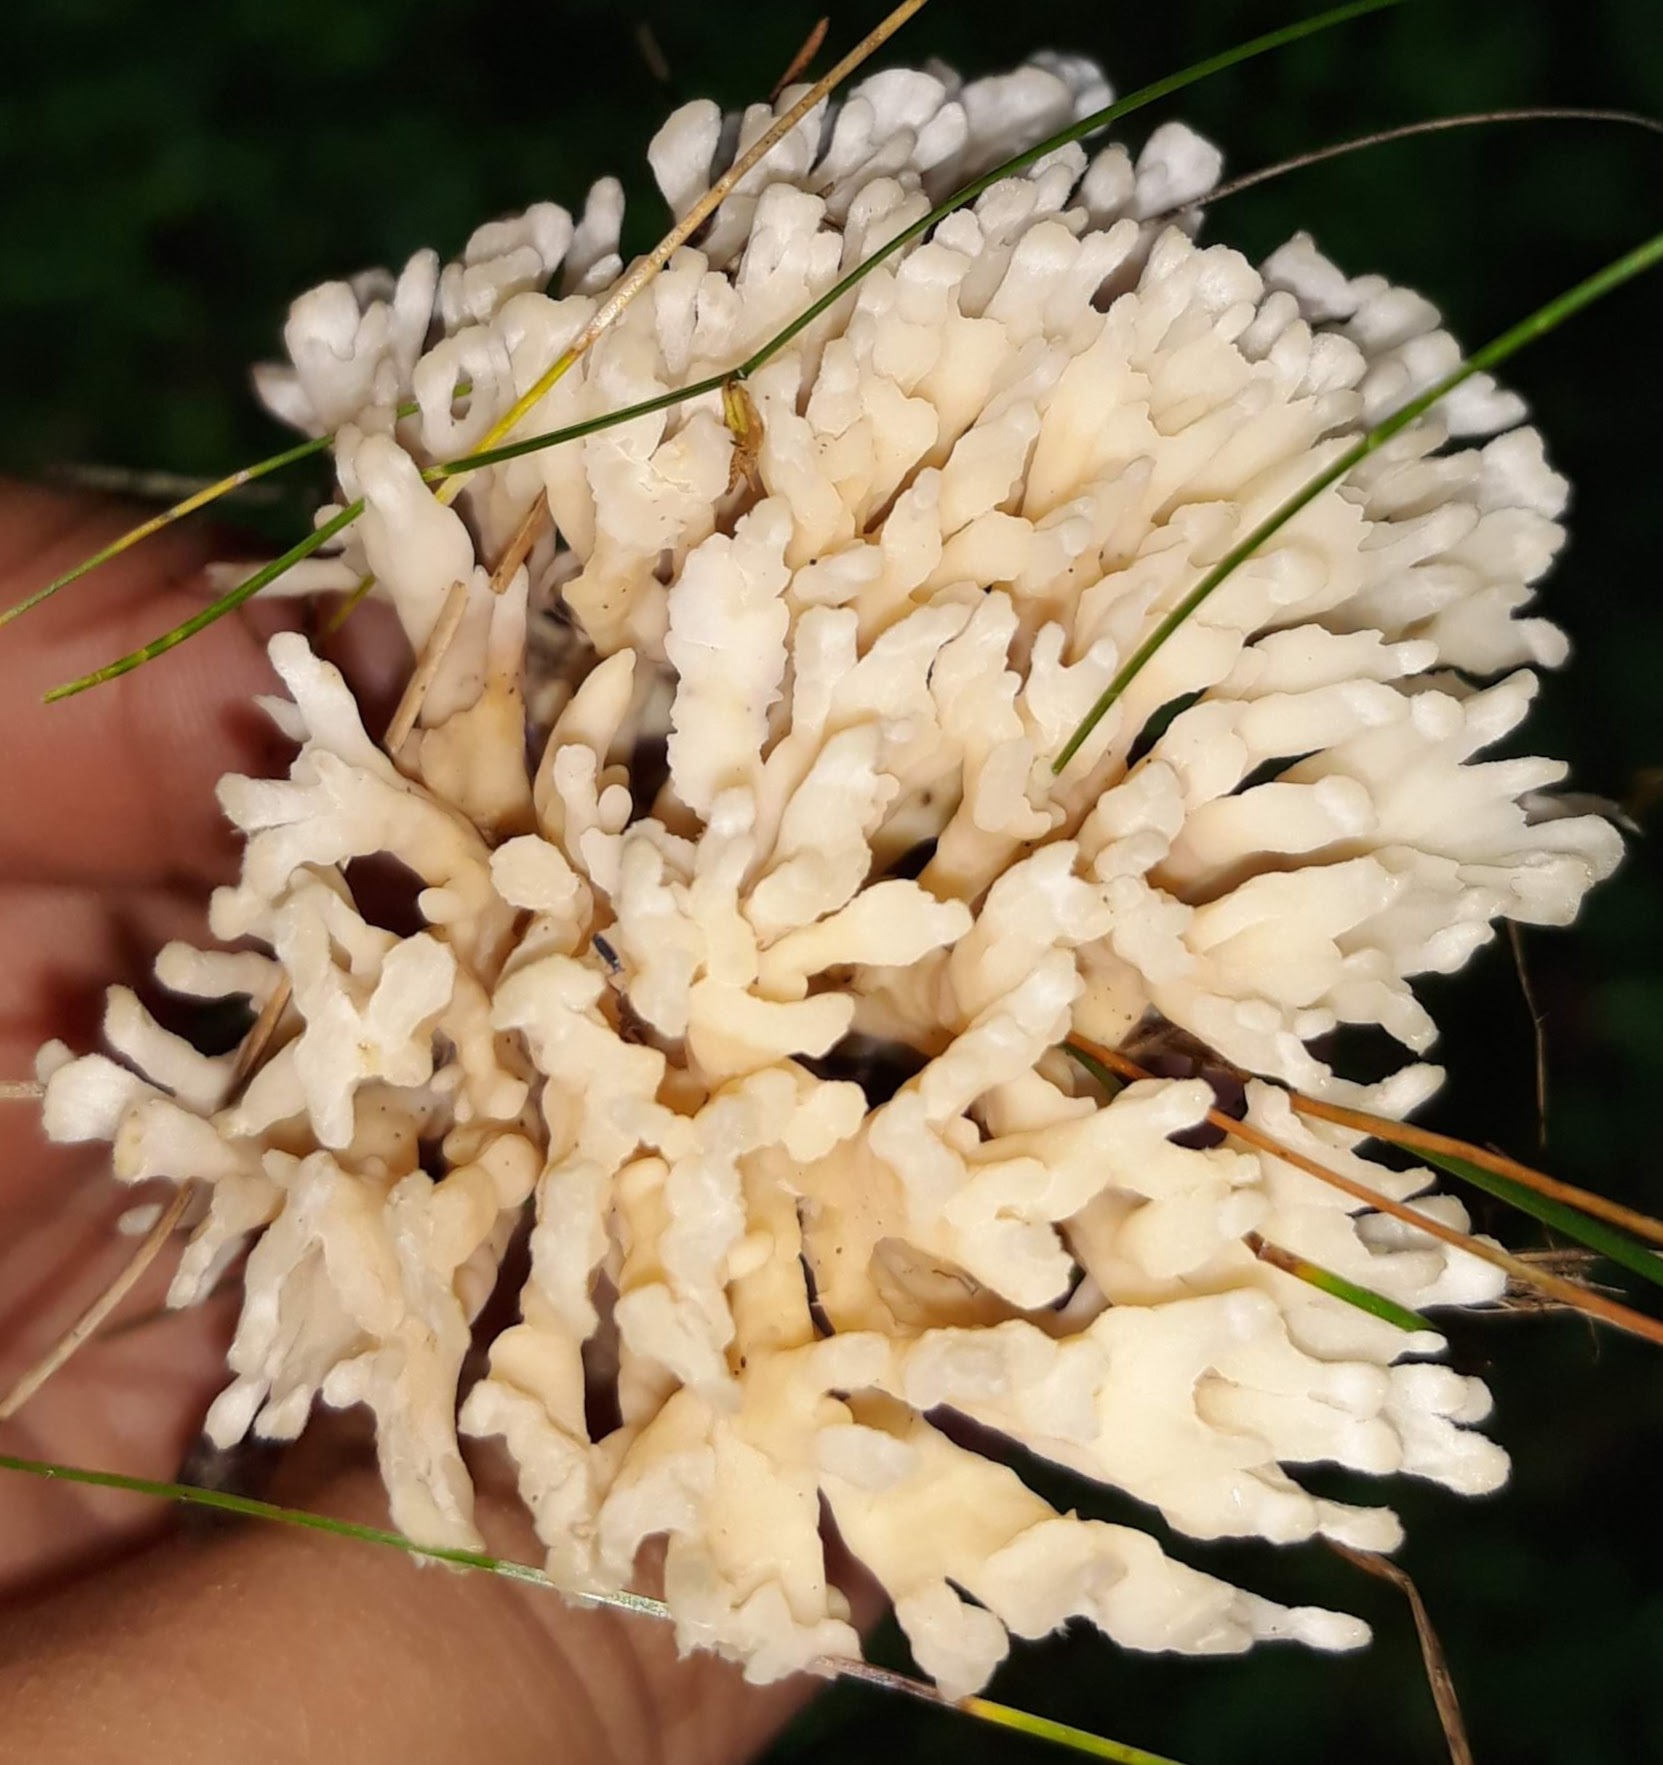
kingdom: Fungi
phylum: Basidiomycota
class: Agaricomycetes
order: Sebacinales
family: Sebacinaceae
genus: Sebacina
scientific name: Sebacina schweinitzii
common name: Jellied false coral fungus
